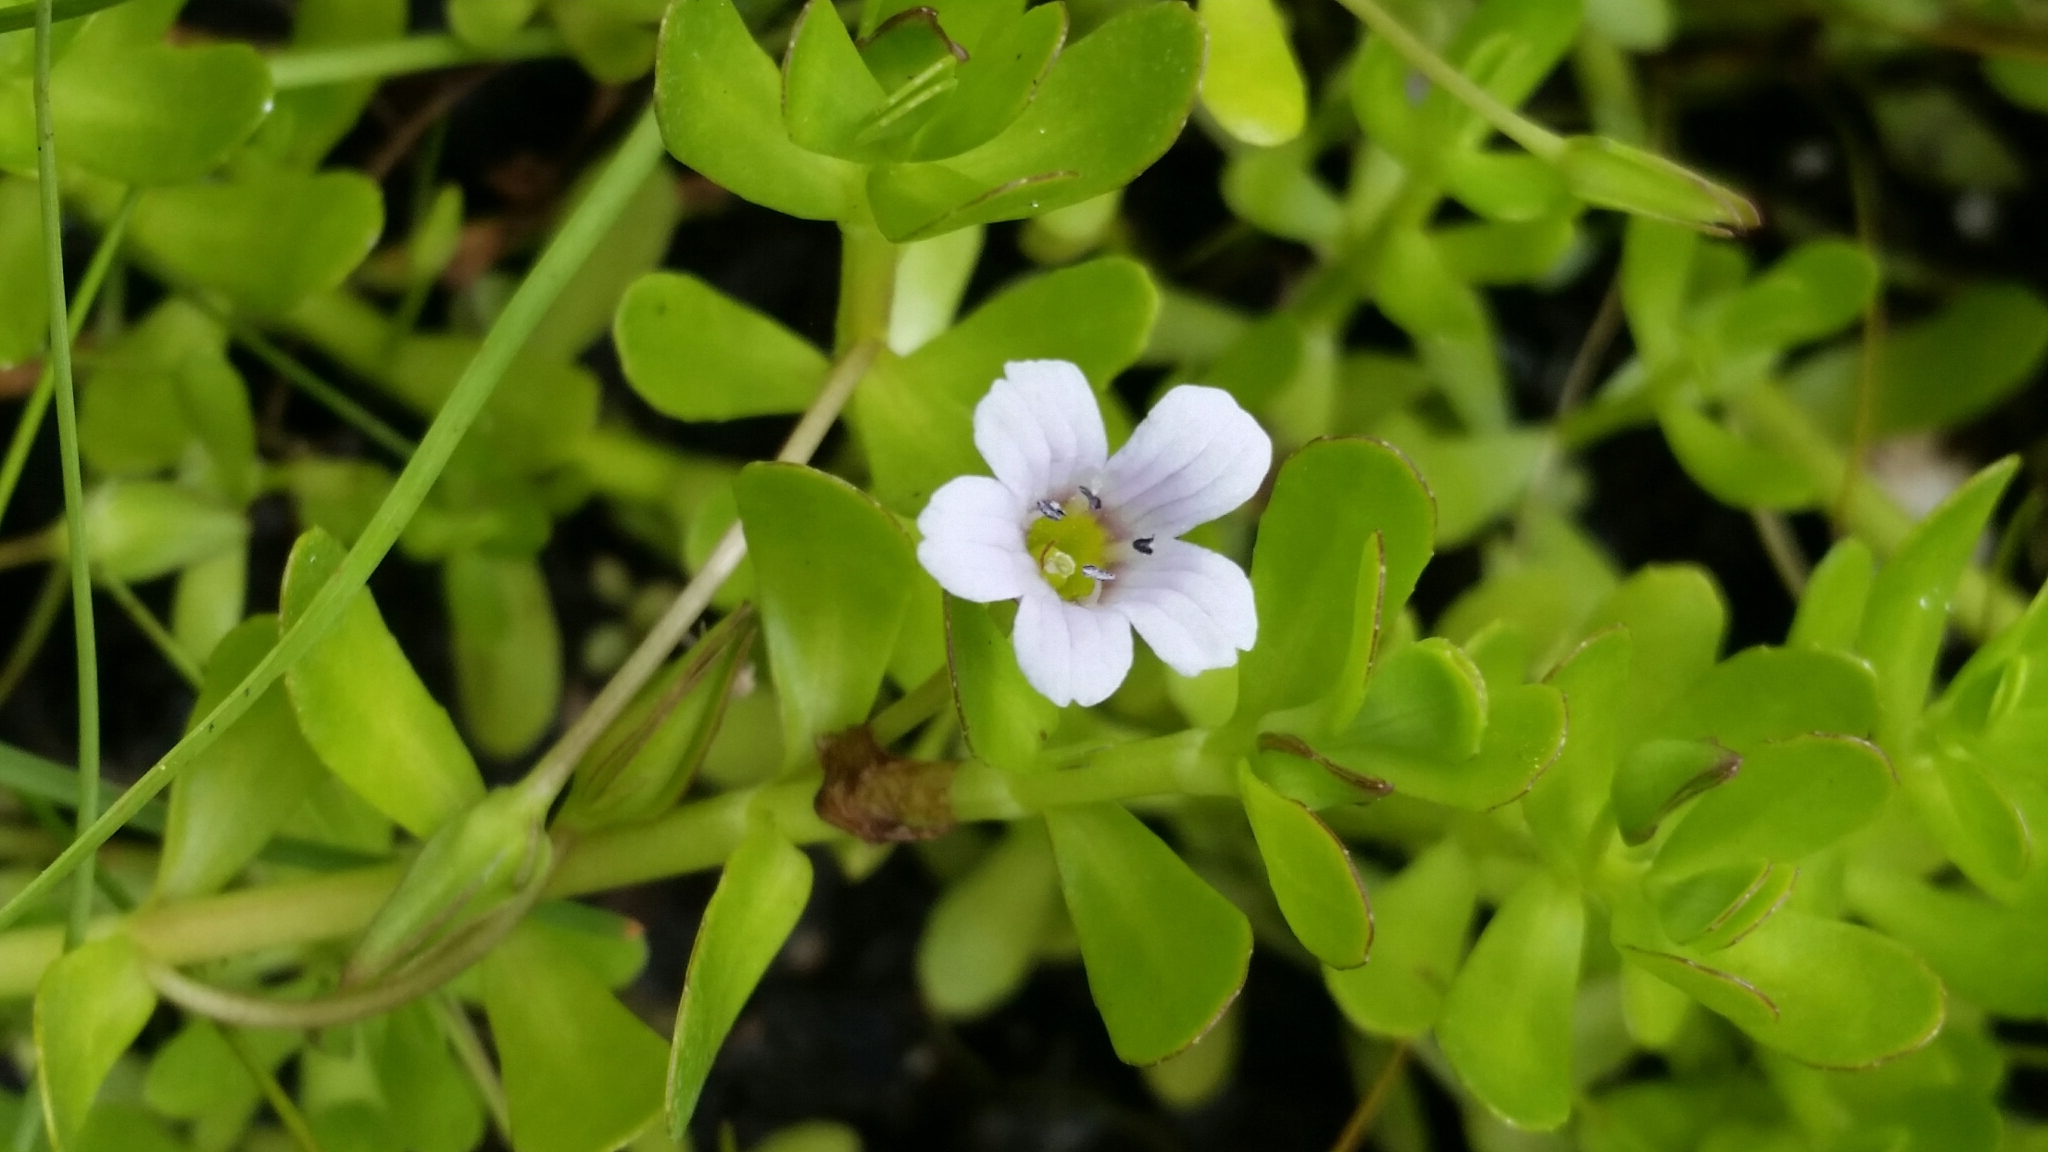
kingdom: Plantae
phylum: Tracheophyta
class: Magnoliopsida
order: Lamiales
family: Plantaginaceae
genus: Bacopa
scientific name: Bacopa monnieri
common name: Indian-pennywort
